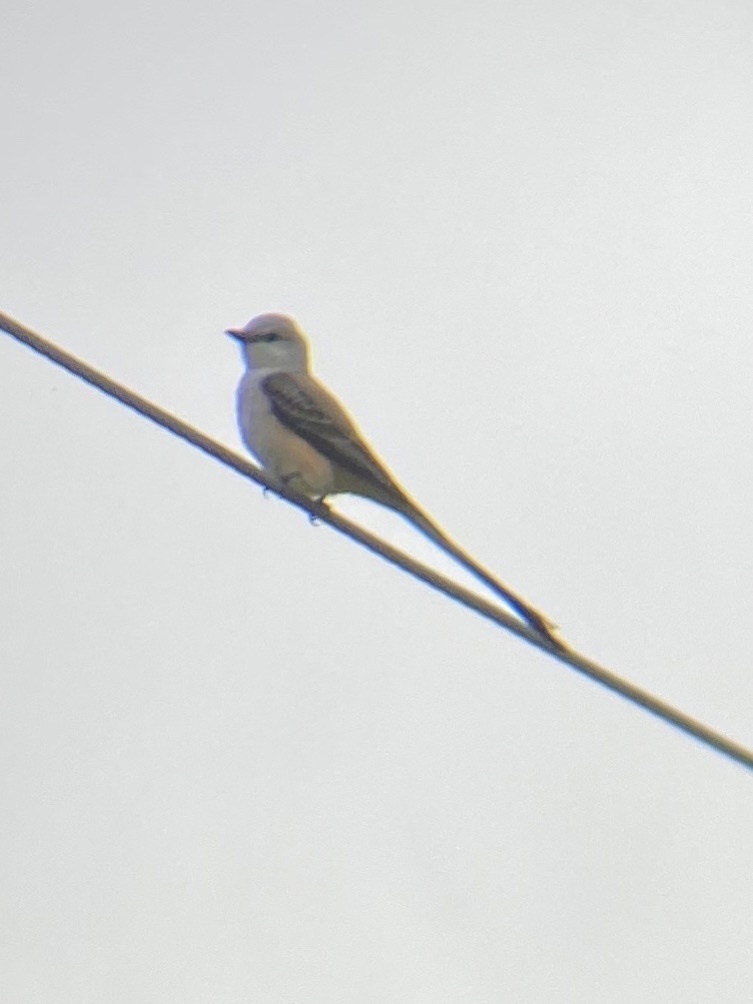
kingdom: Animalia
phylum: Chordata
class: Aves
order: Passeriformes
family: Tyrannidae
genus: Tyrannus
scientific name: Tyrannus forficatus
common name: Scissor-tailed flycatcher
